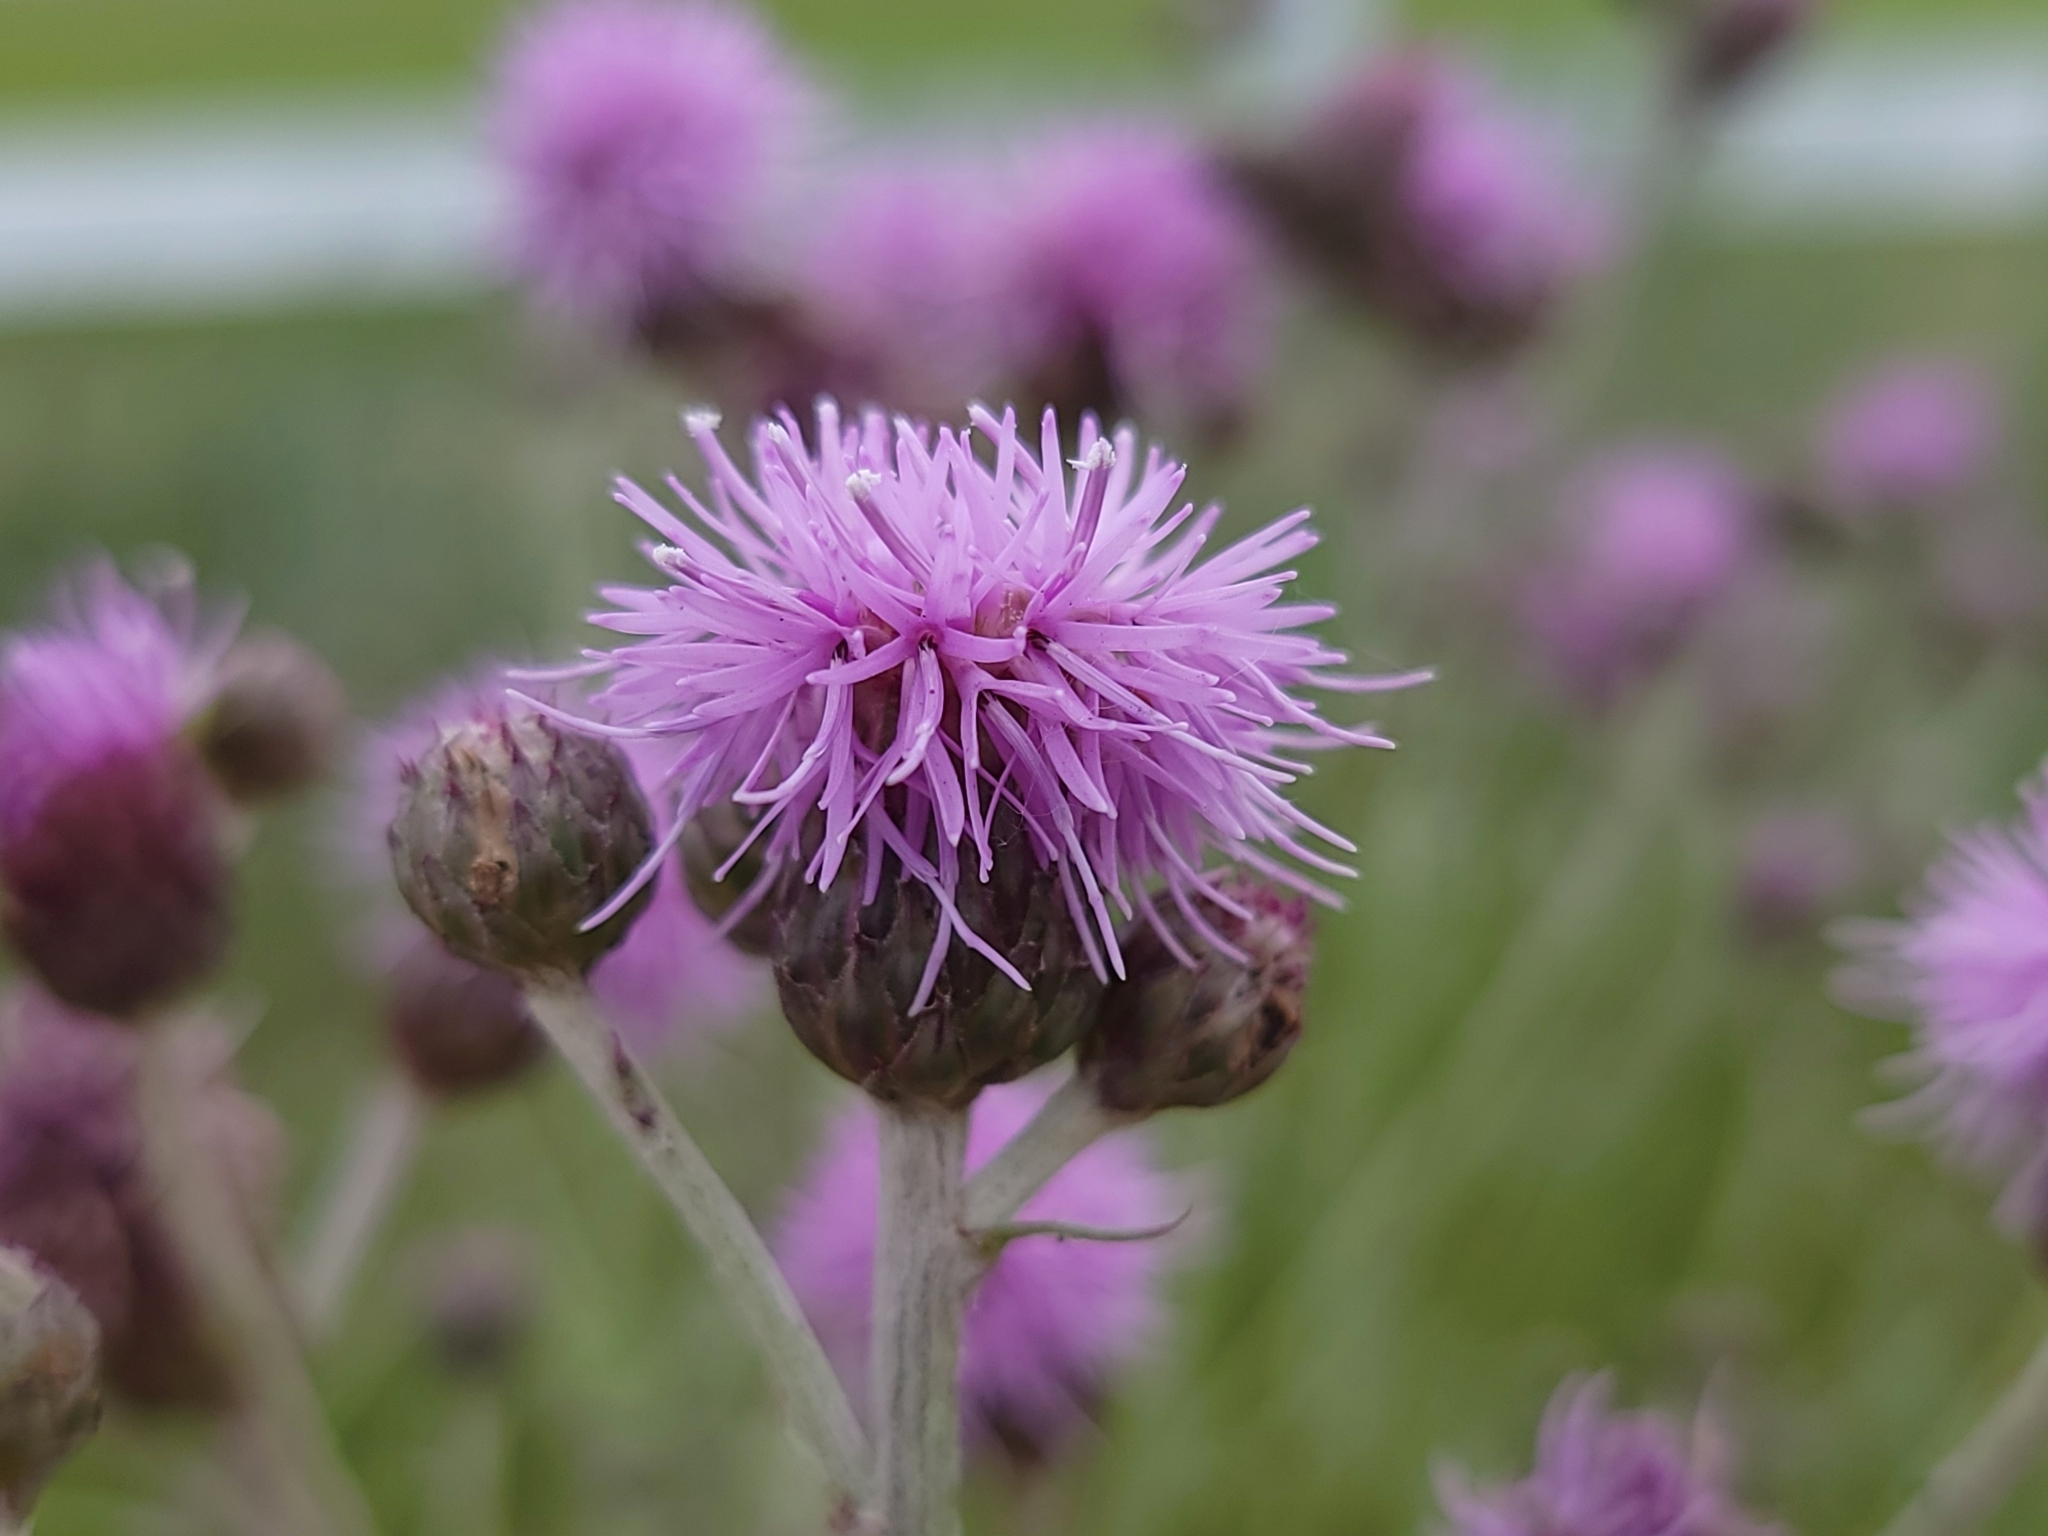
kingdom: Plantae
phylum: Tracheophyta
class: Magnoliopsida
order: Asterales
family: Asteraceae
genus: Cirsium
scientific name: Cirsium arvense
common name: Creeping thistle
